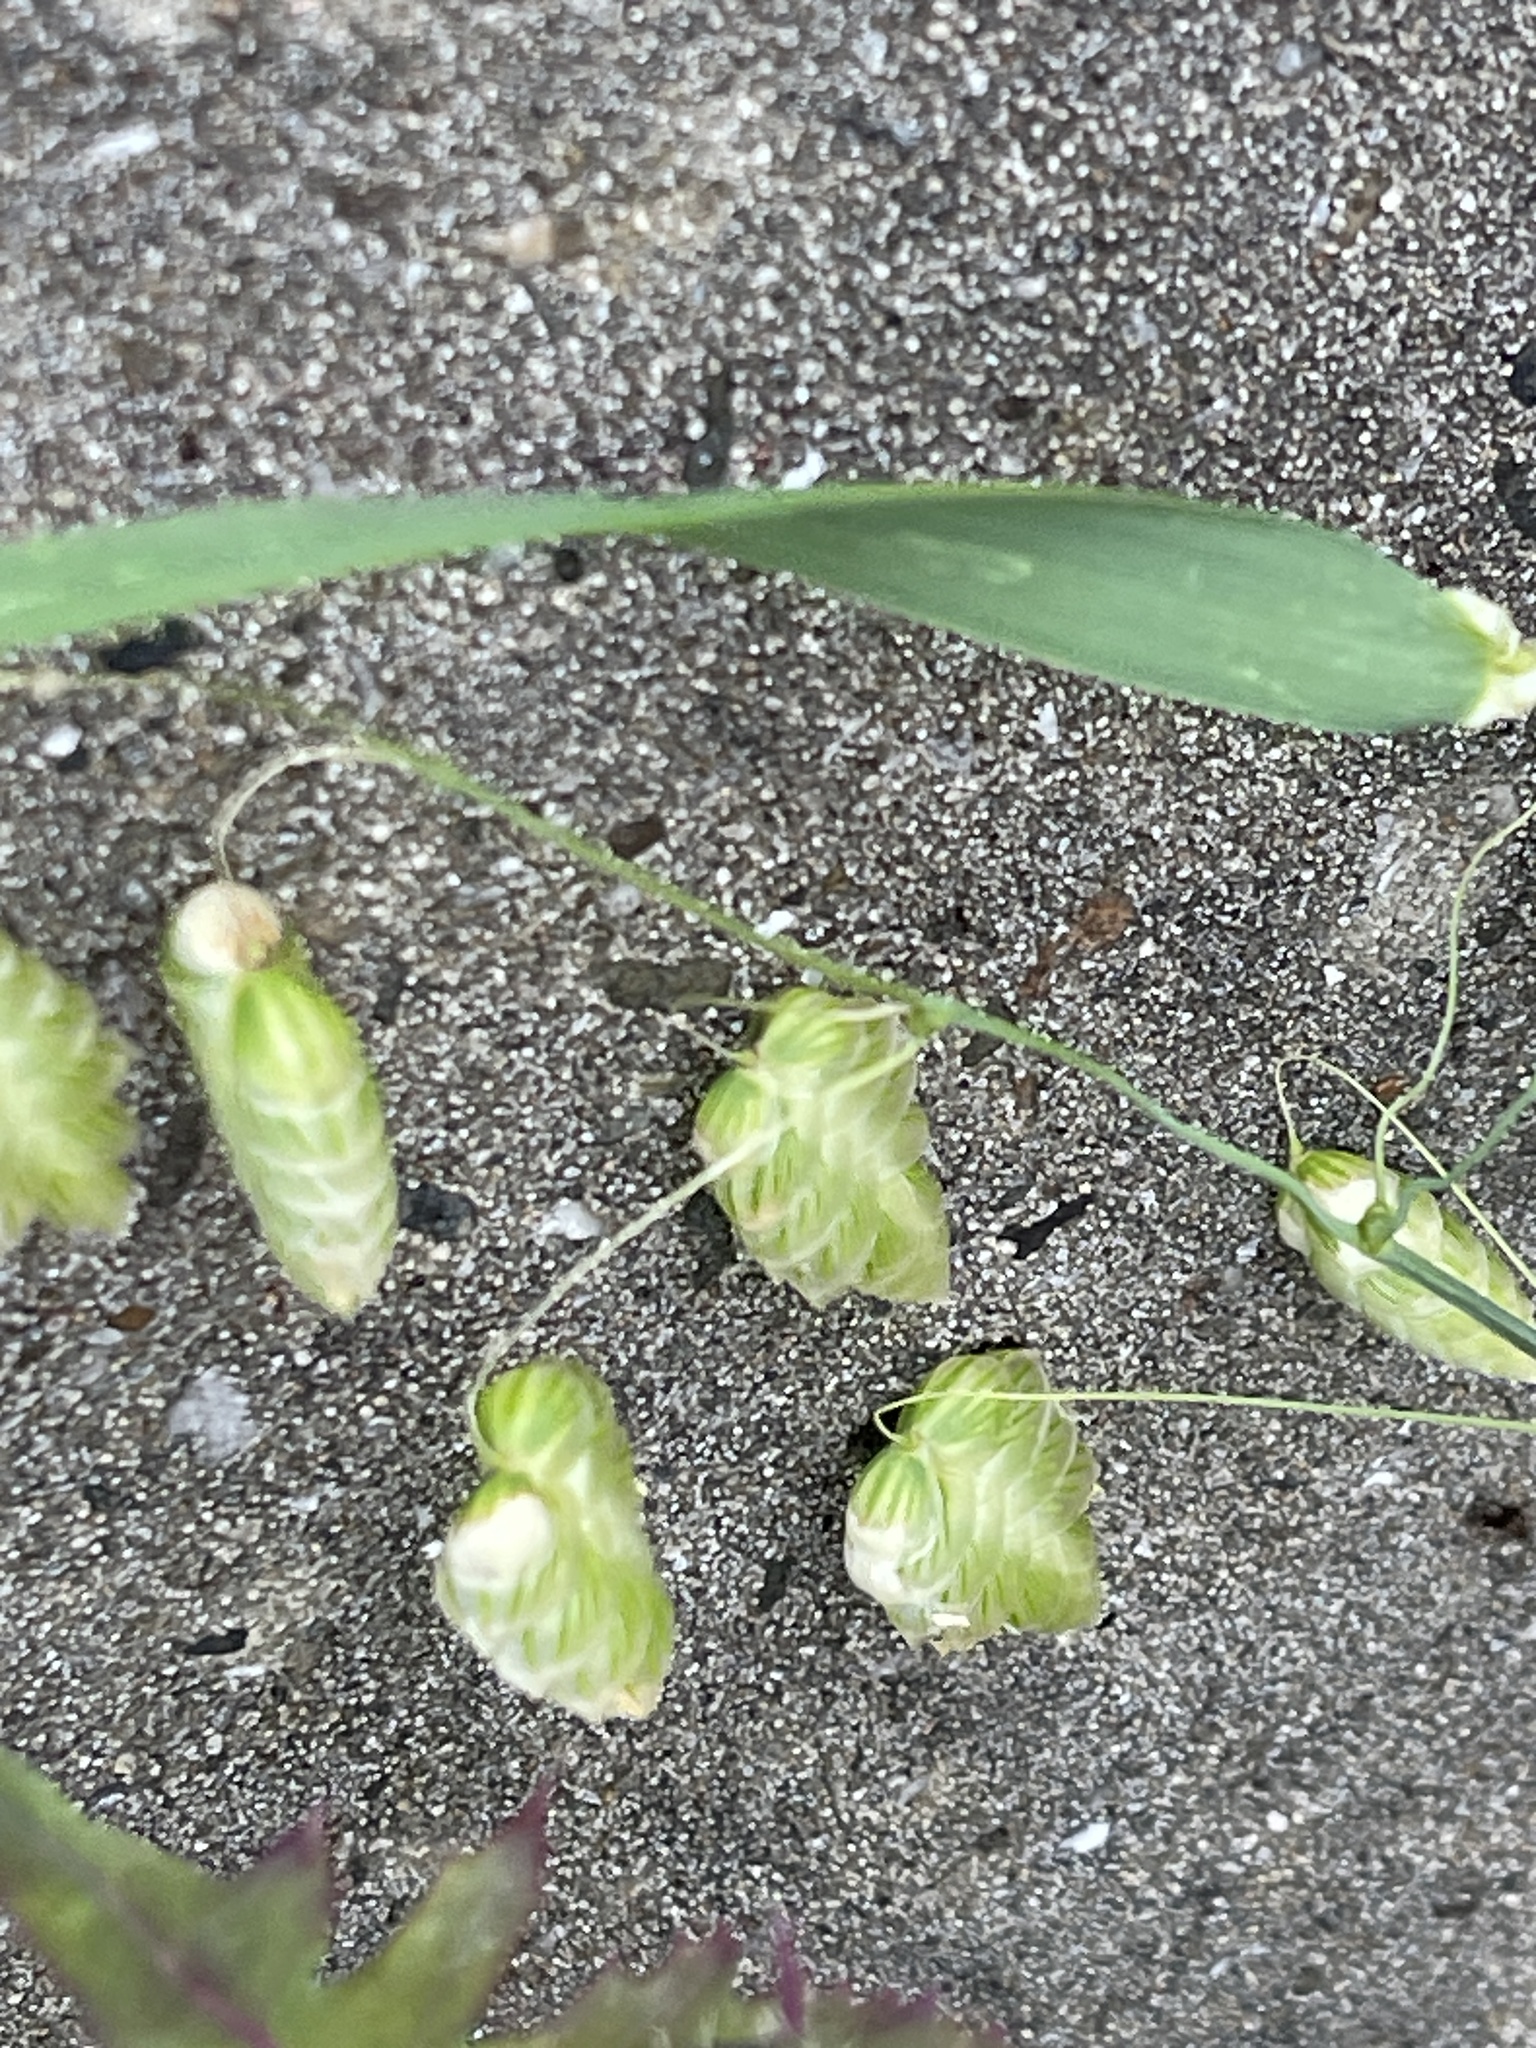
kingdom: Plantae
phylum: Tracheophyta
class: Liliopsida
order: Poales
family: Poaceae
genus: Briza
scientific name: Briza maxima
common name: Big quakinggrass
